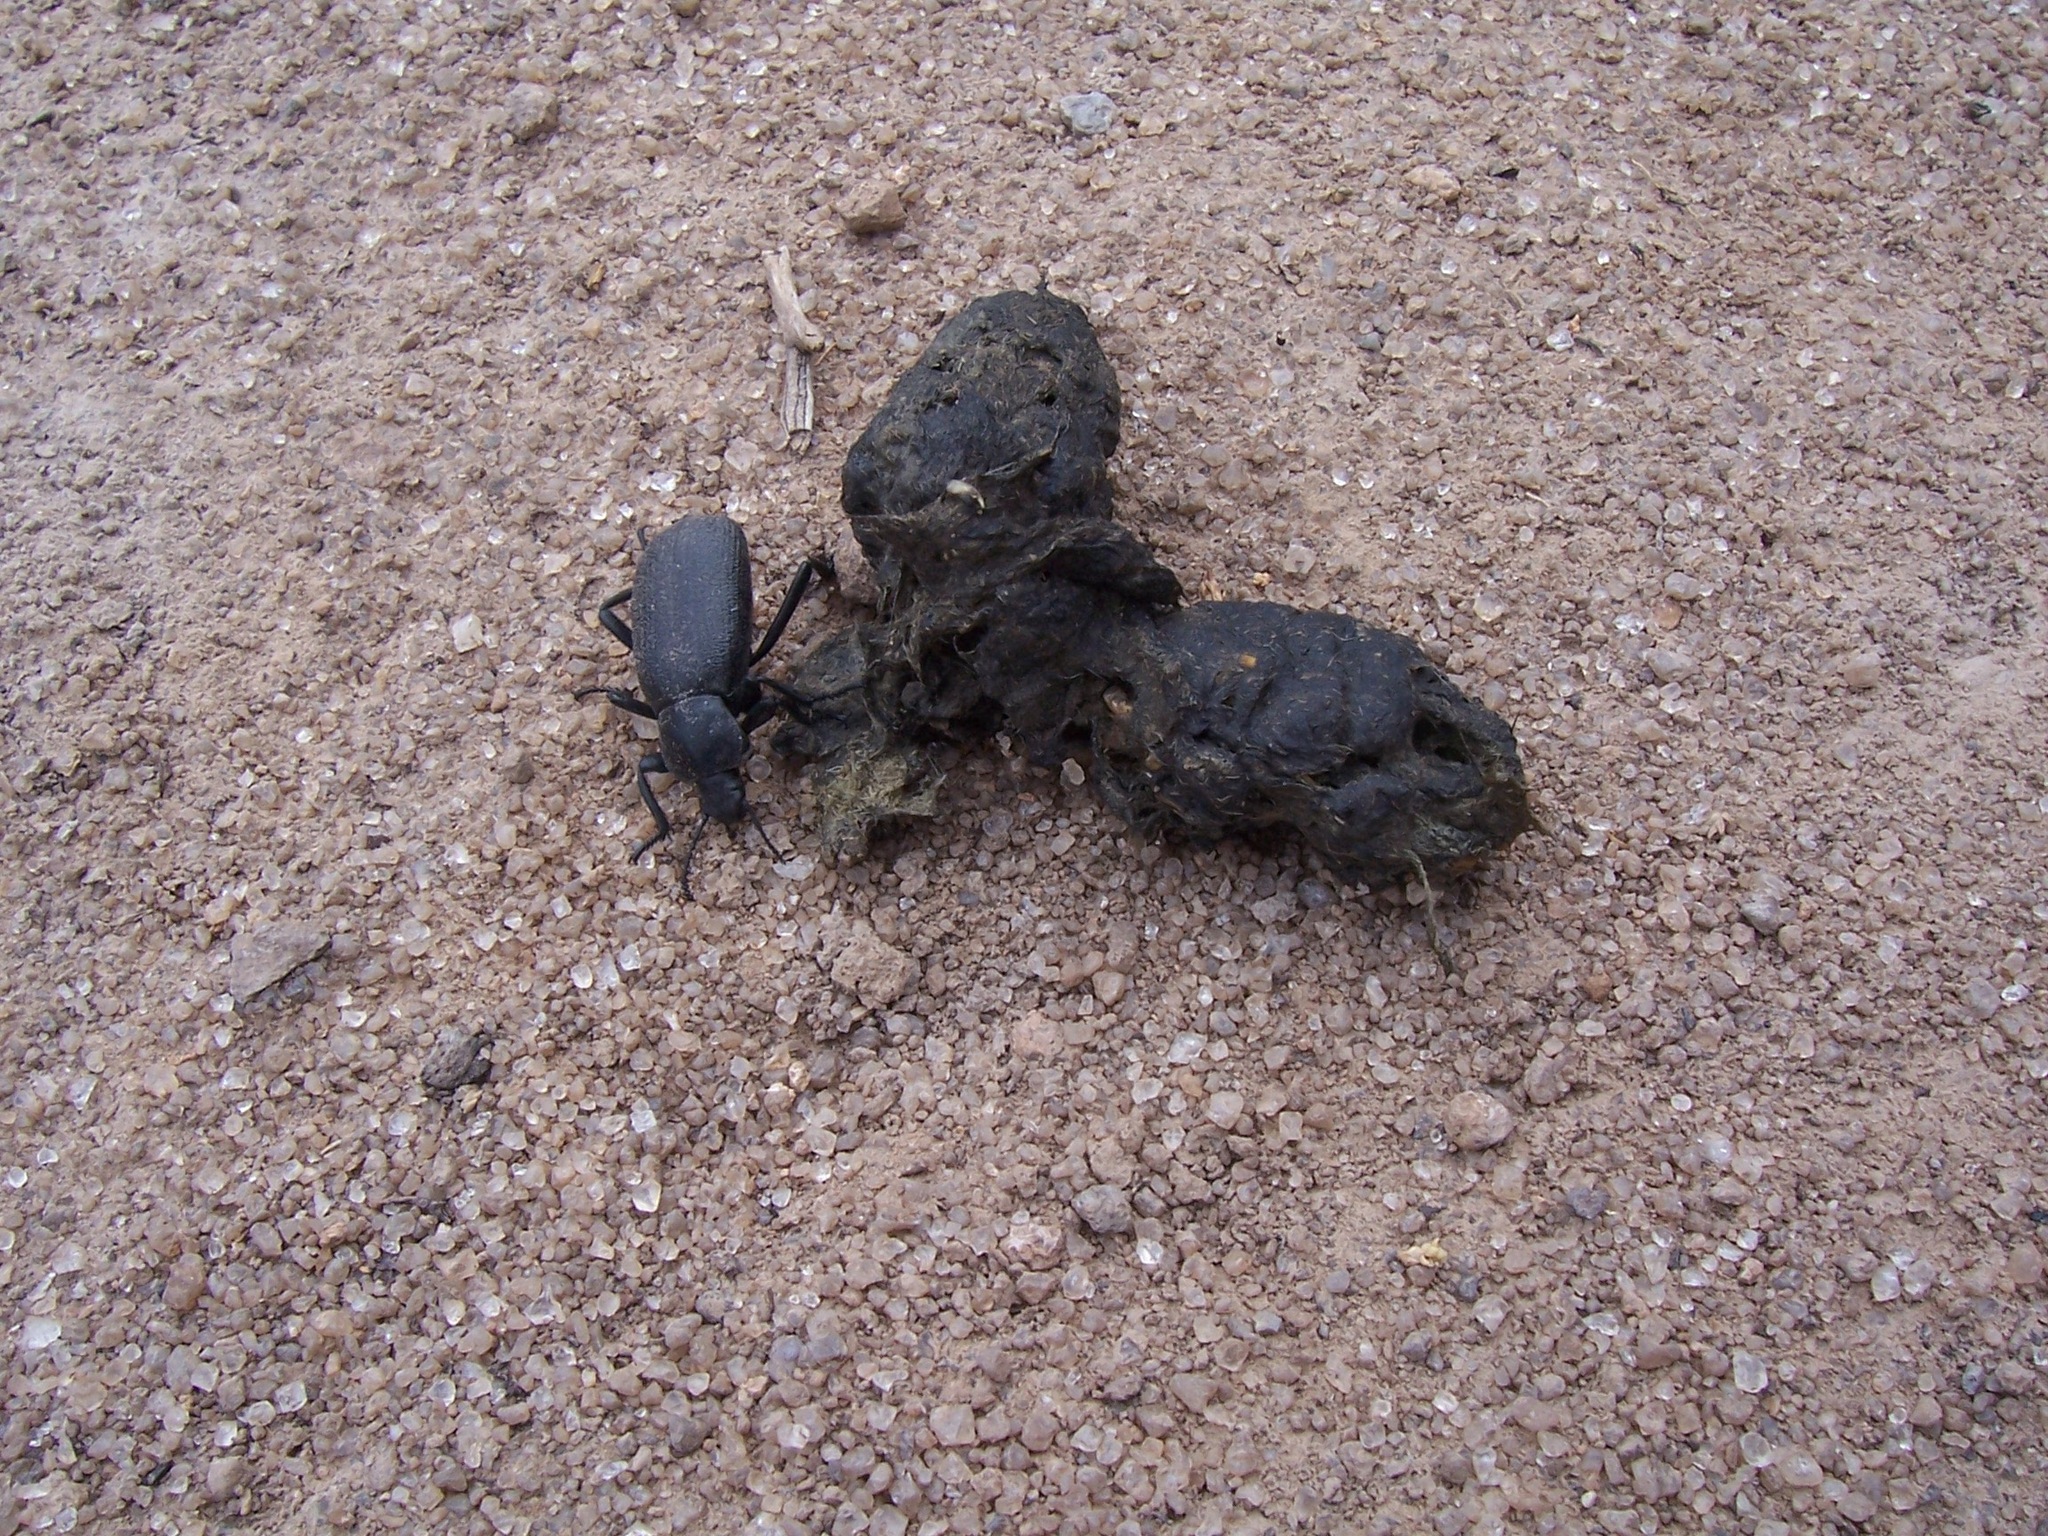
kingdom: Animalia
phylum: Arthropoda
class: Insecta
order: Coleoptera
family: Tenebrionidae
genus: Eleodes
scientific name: Eleodes obscura
